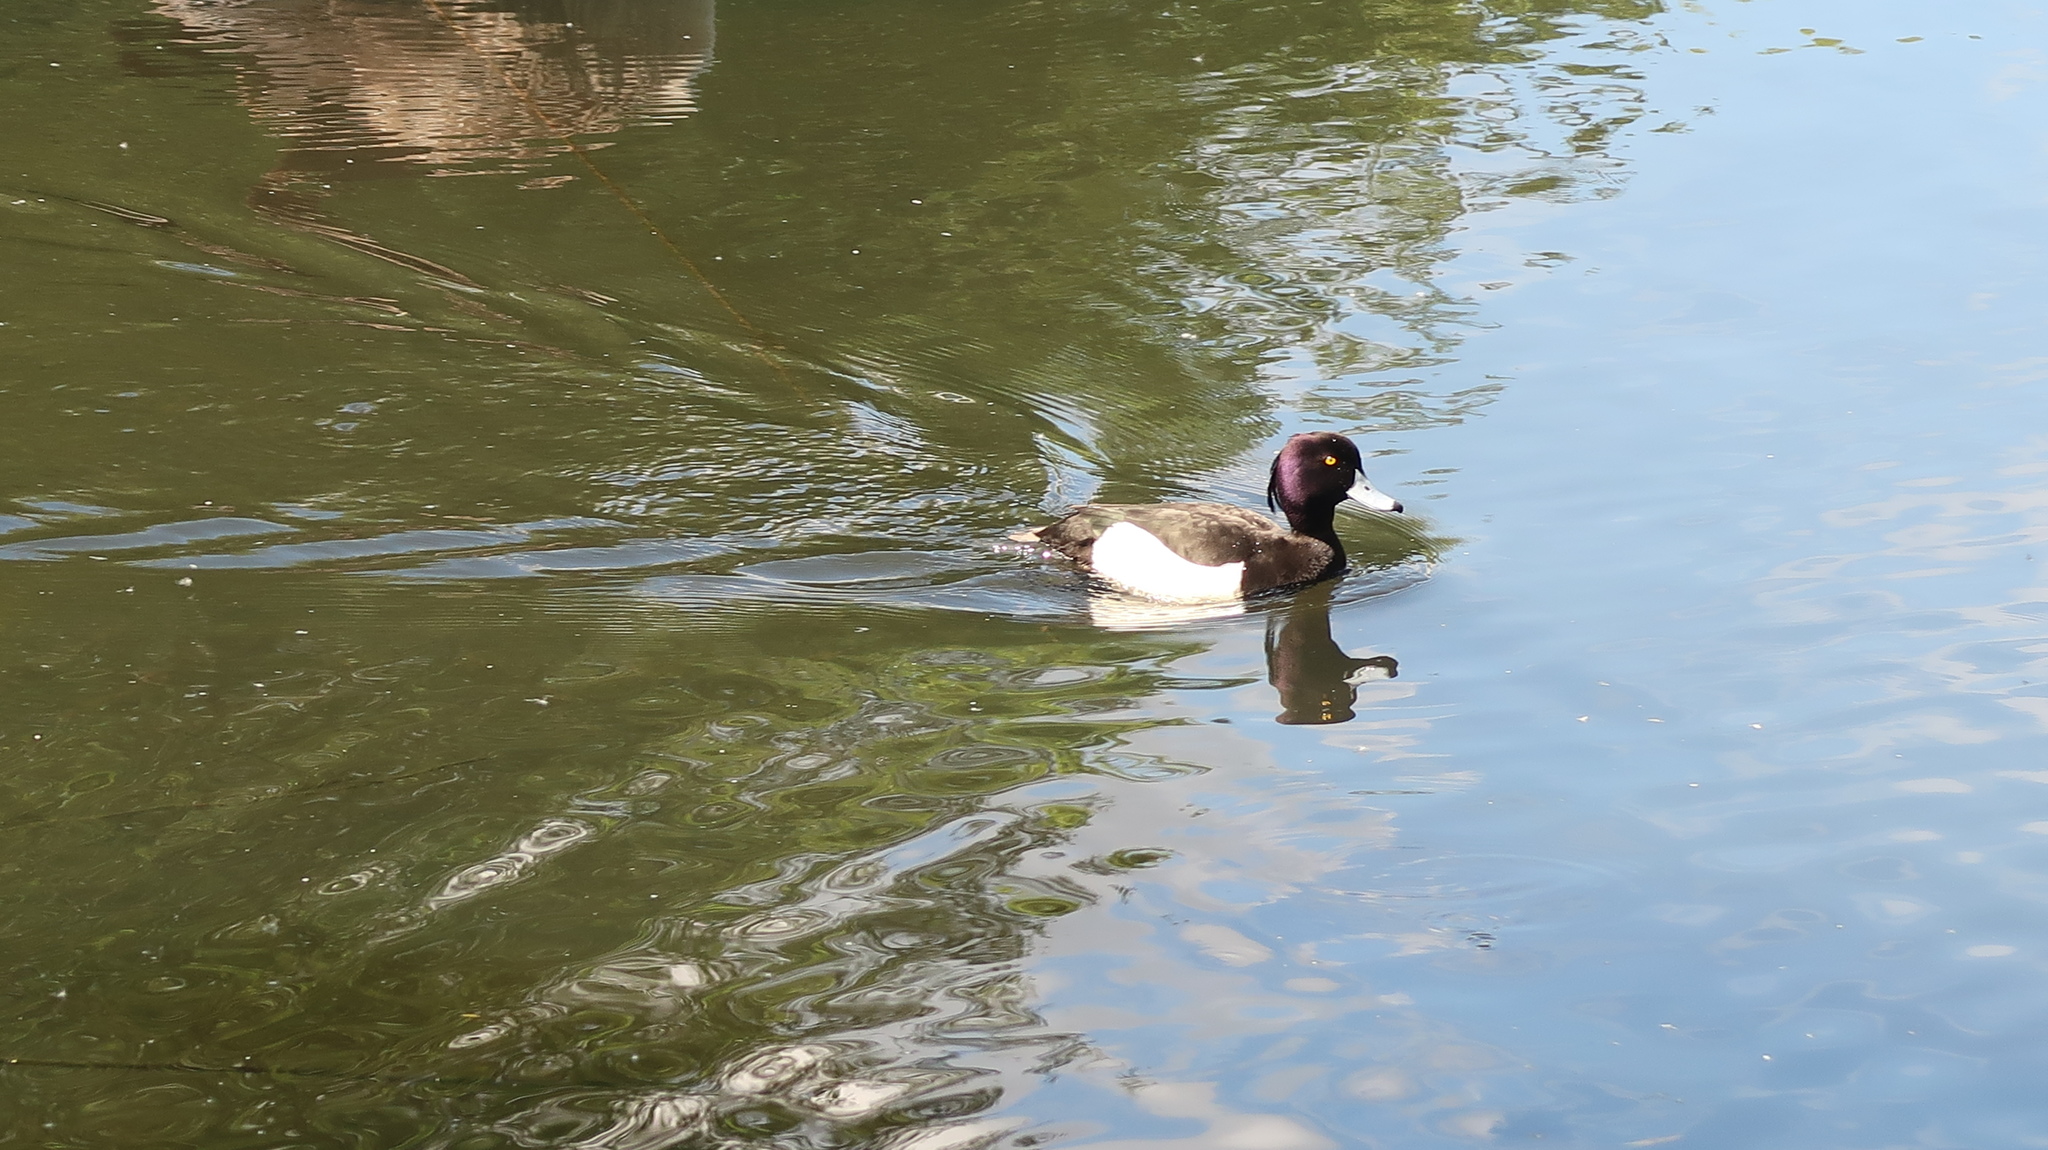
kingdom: Animalia
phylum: Chordata
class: Aves
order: Anseriformes
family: Anatidae
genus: Aythya
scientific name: Aythya fuligula
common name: Tufted duck
